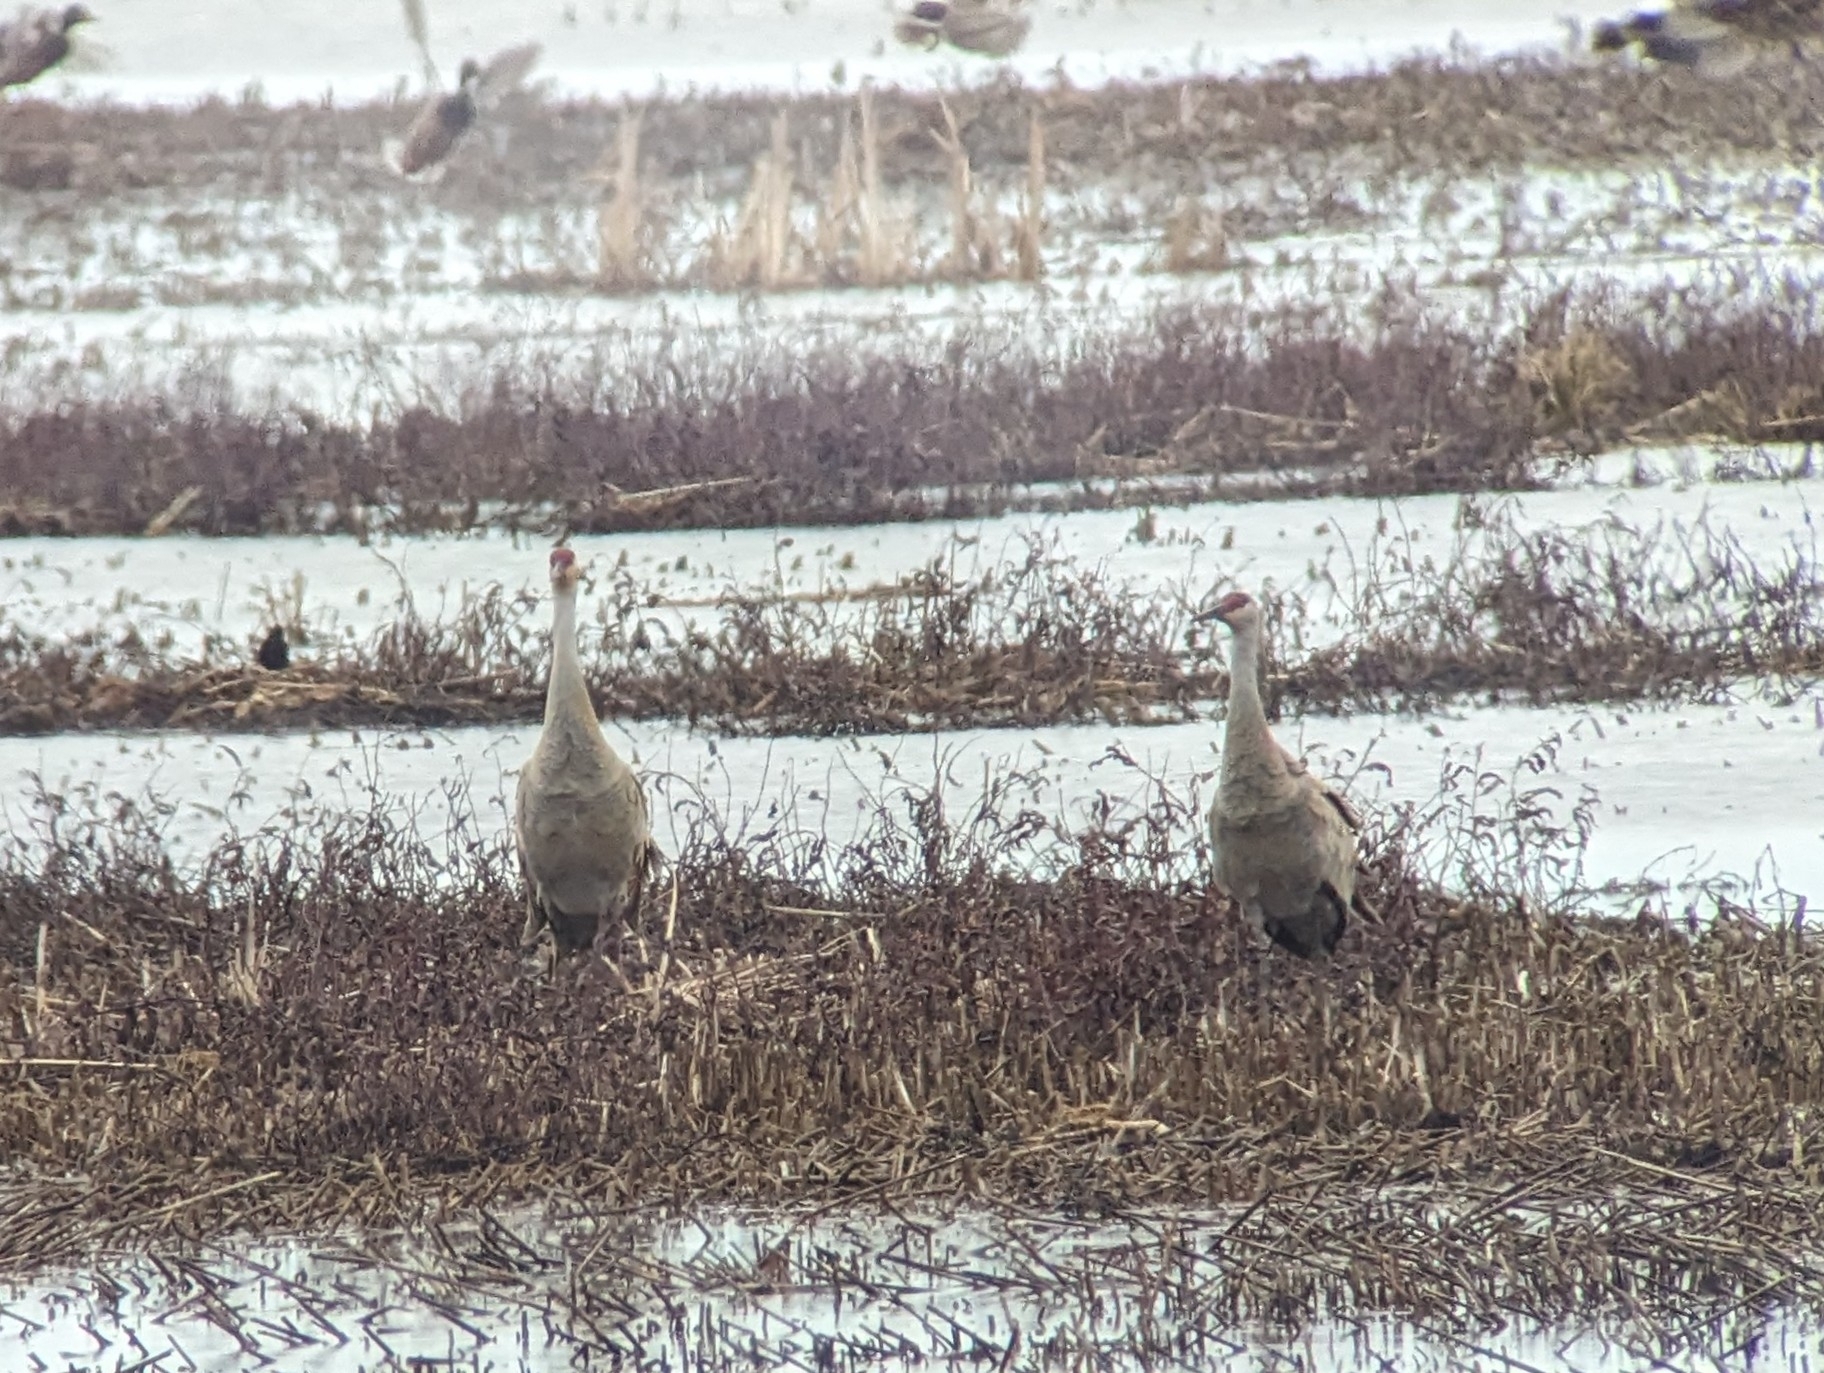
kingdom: Animalia
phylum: Chordata
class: Aves
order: Gruiformes
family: Gruidae
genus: Grus
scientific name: Grus canadensis
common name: Sandhill crane
